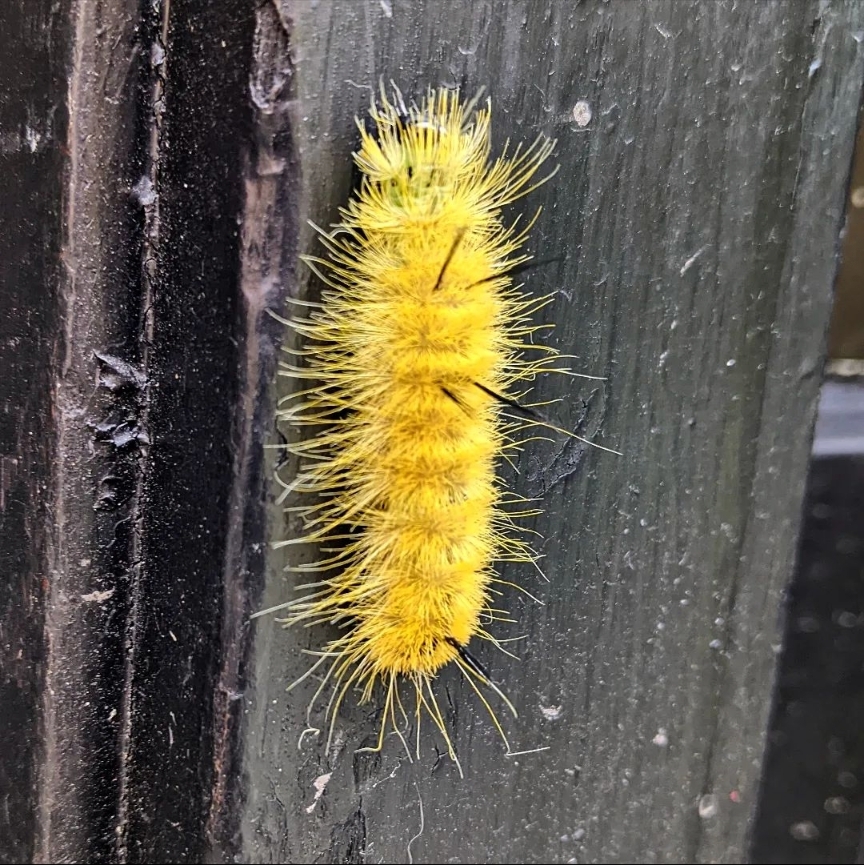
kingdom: Animalia
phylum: Arthropoda
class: Insecta
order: Lepidoptera
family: Noctuidae
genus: Acronicta
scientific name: Acronicta americana
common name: American dagger
